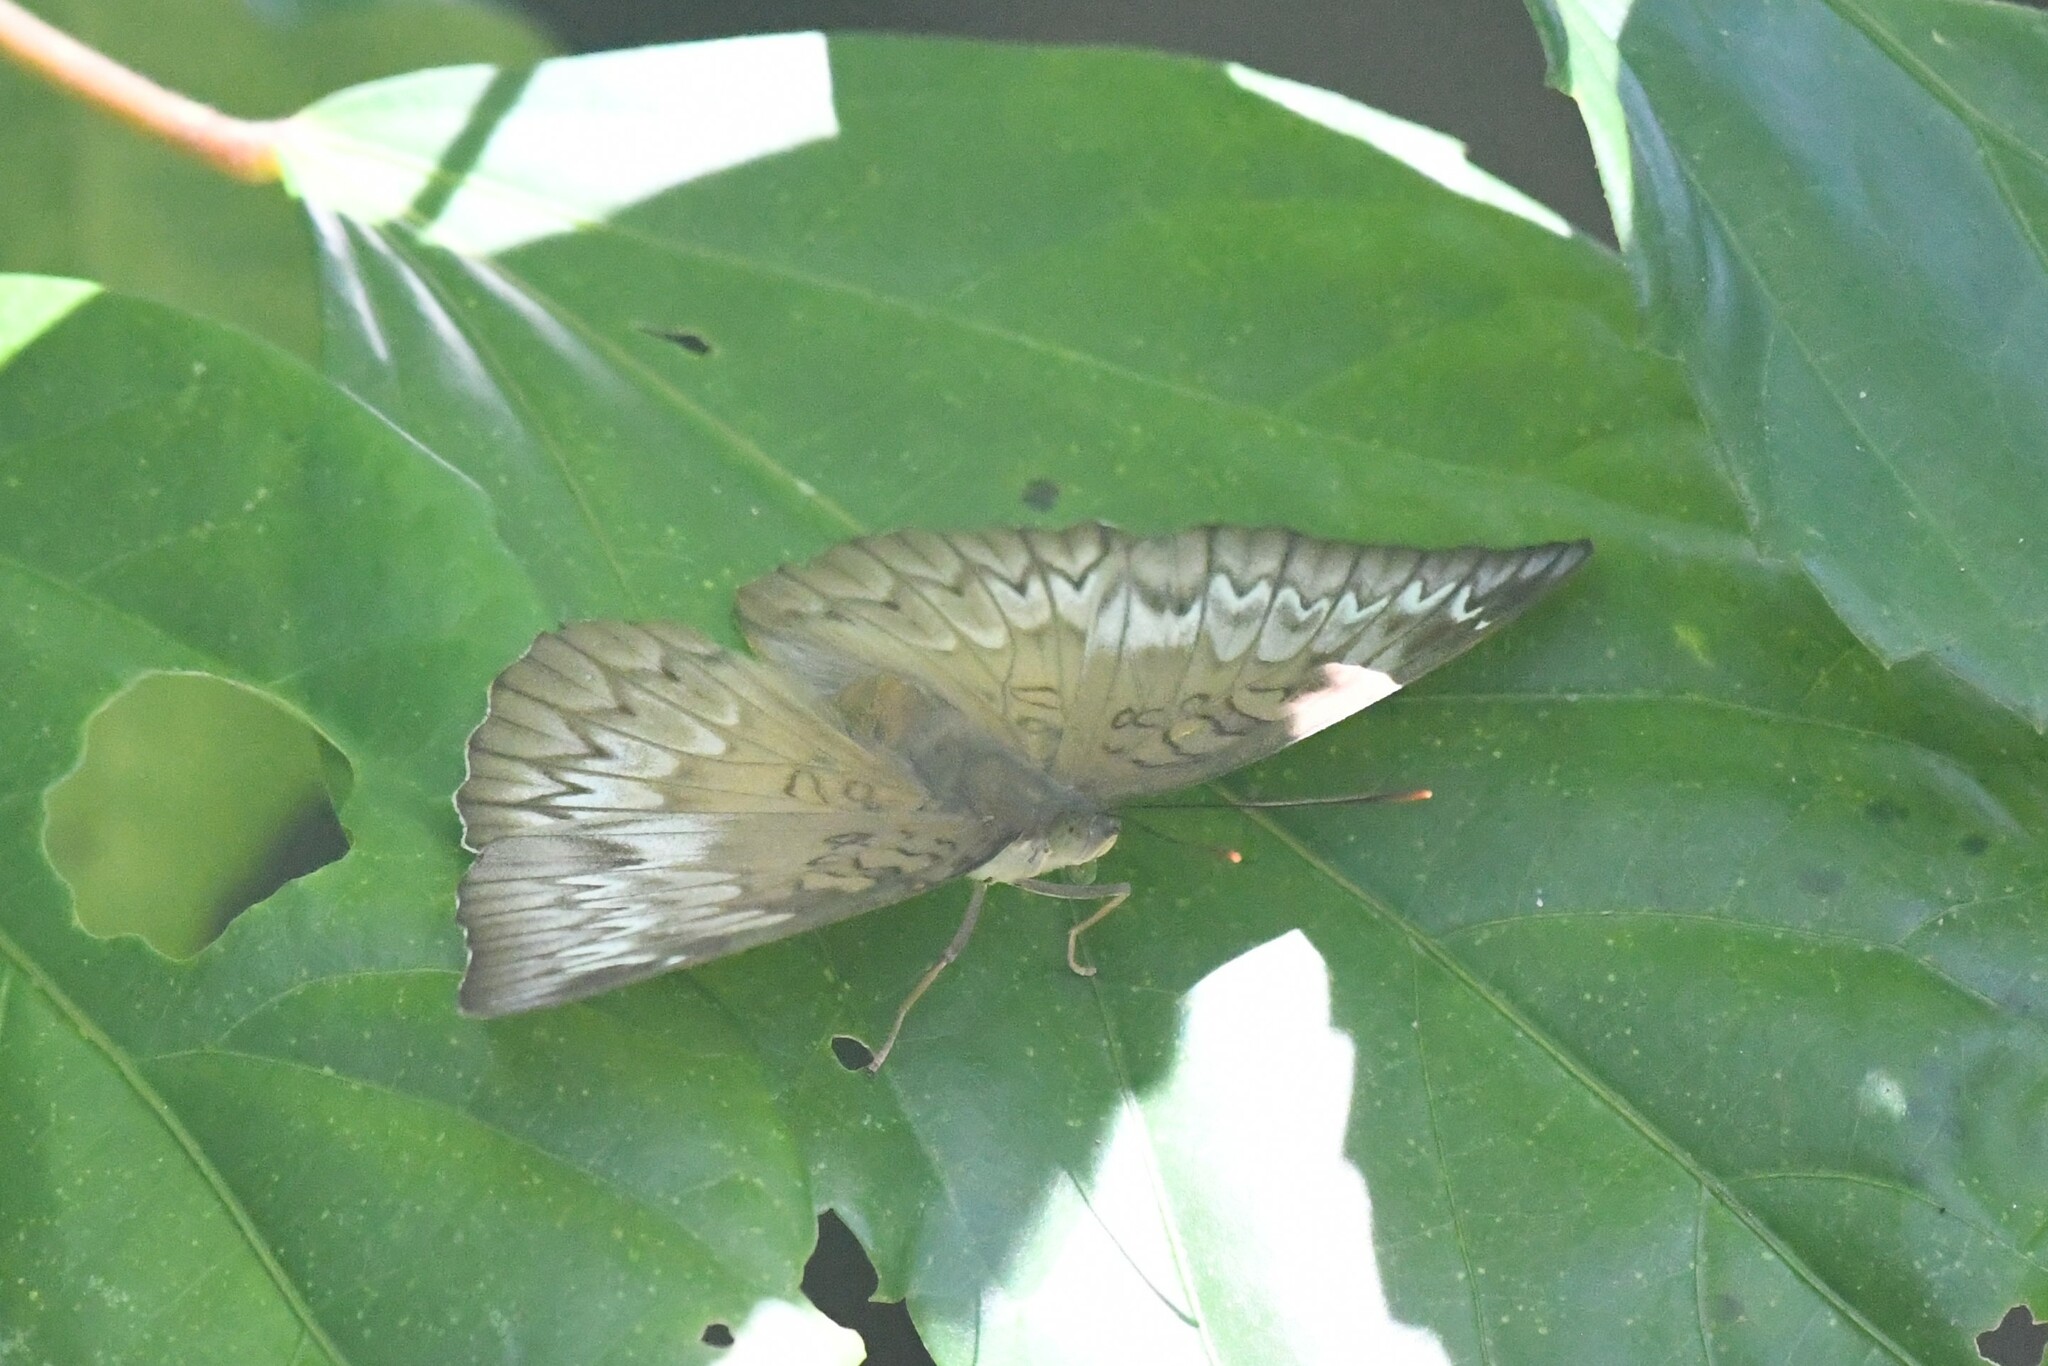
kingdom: Animalia
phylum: Arthropoda
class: Insecta
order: Lepidoptera
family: Nymphalidae
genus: Euthalia
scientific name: Euthalia monina
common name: Powdered baron
